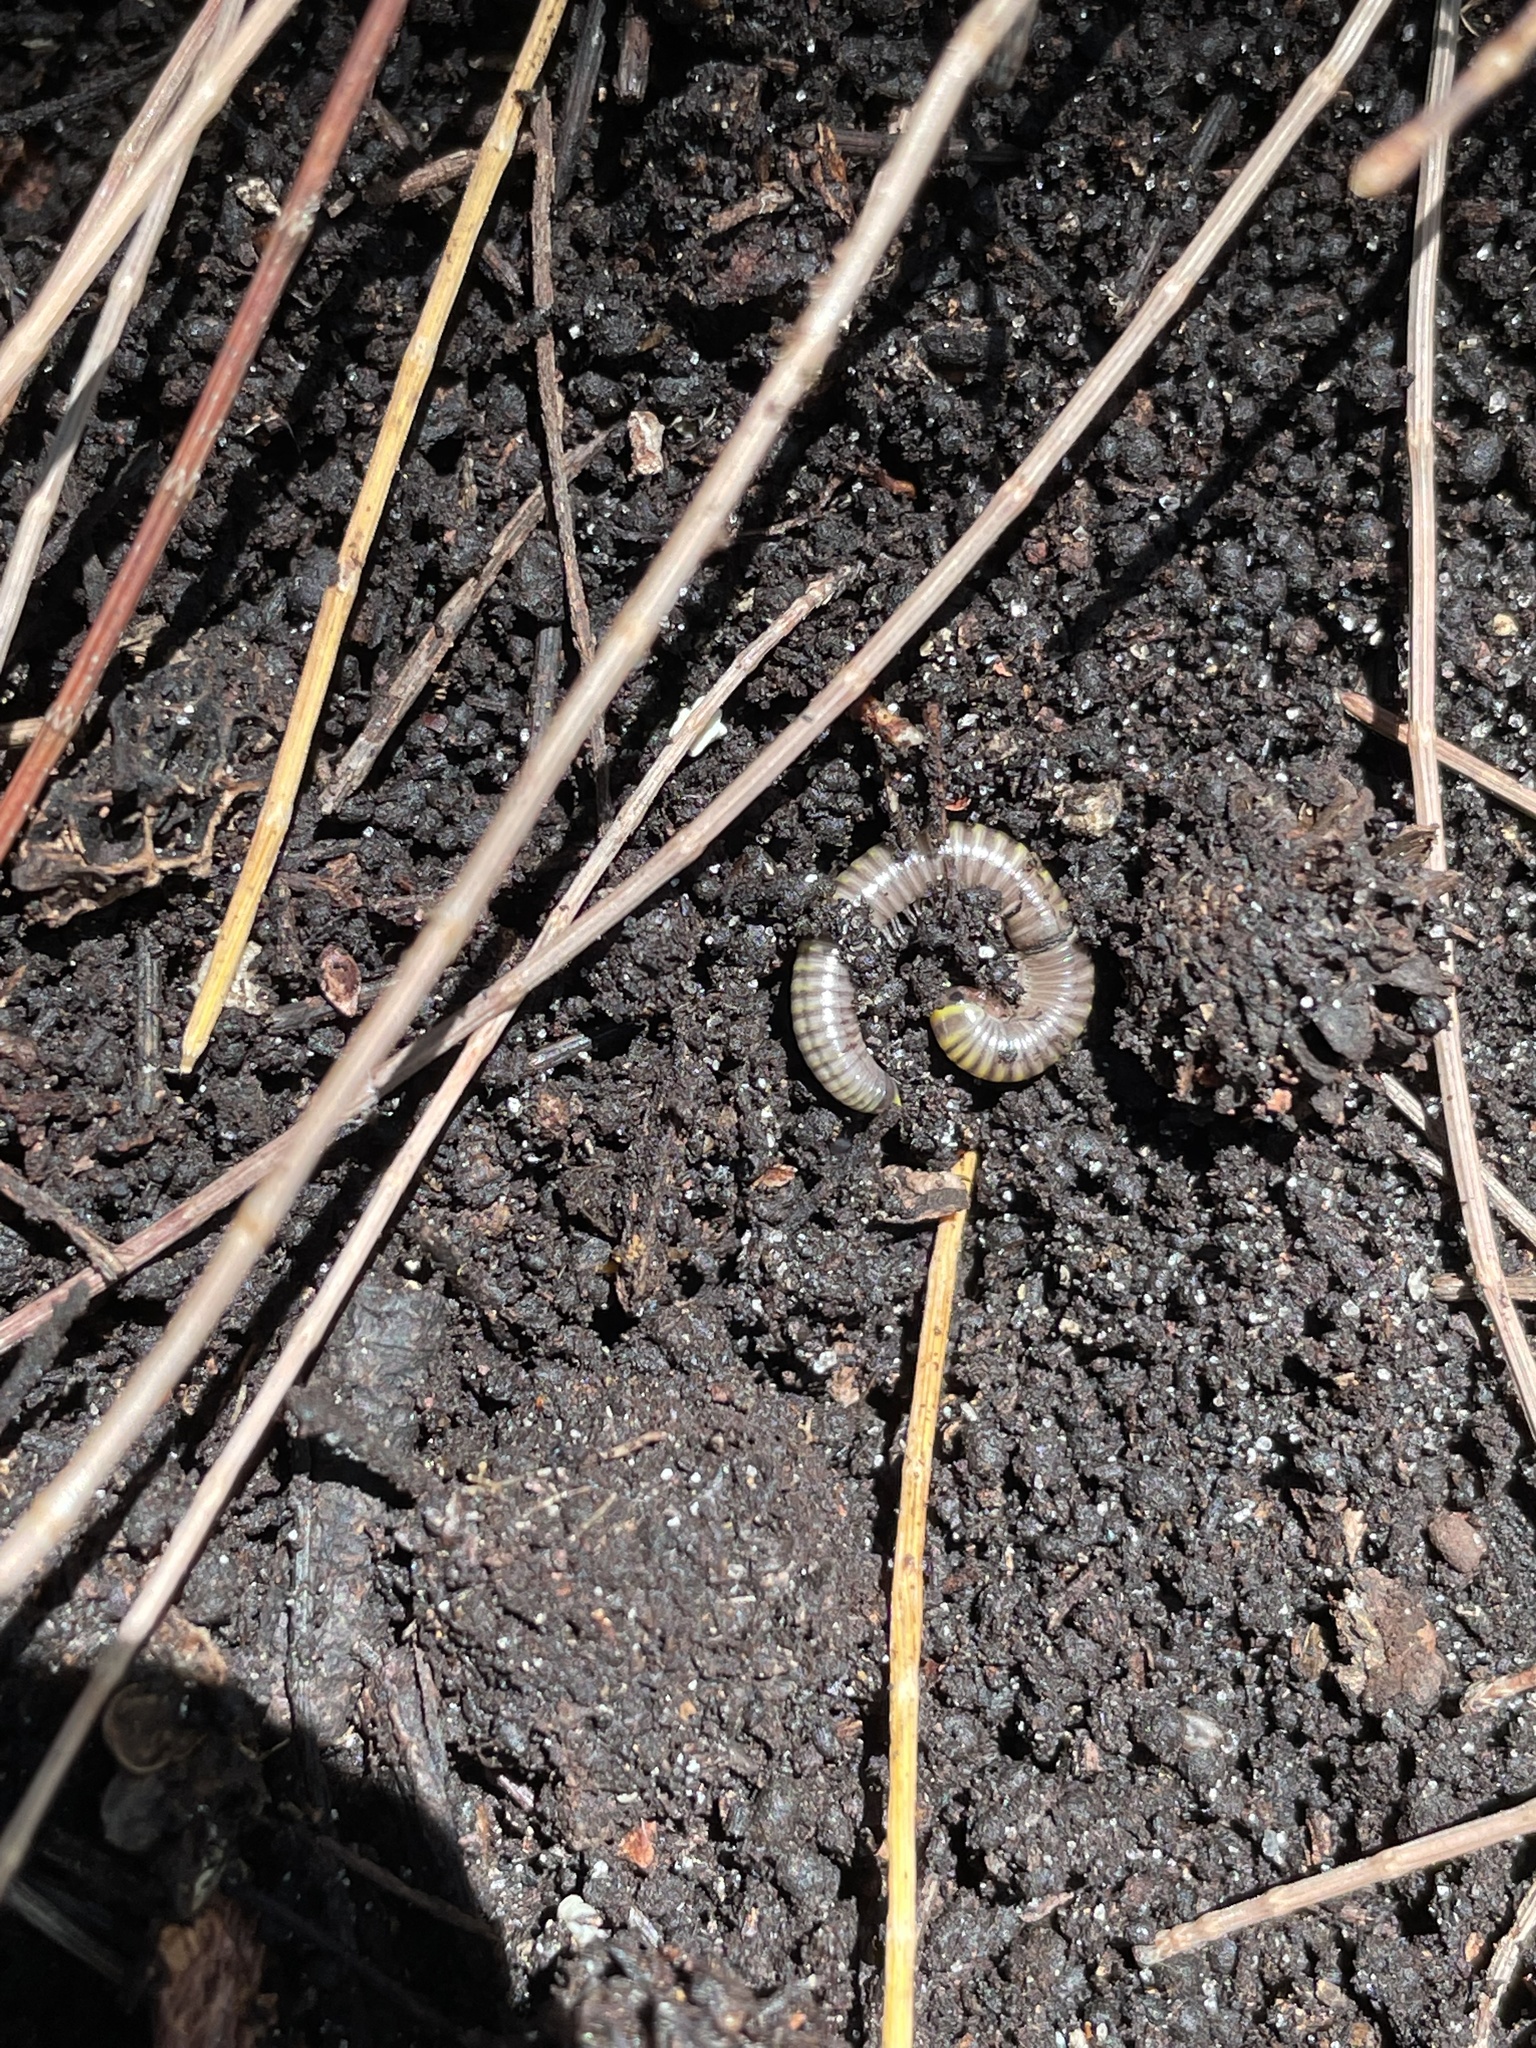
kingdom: Animalia
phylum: Arthropoda
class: Diplopoda
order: Spirobolida
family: Rhinocricidae
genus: Anadenobolus
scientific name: Anadenobolus monilicornis
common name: Caribbean millipede
